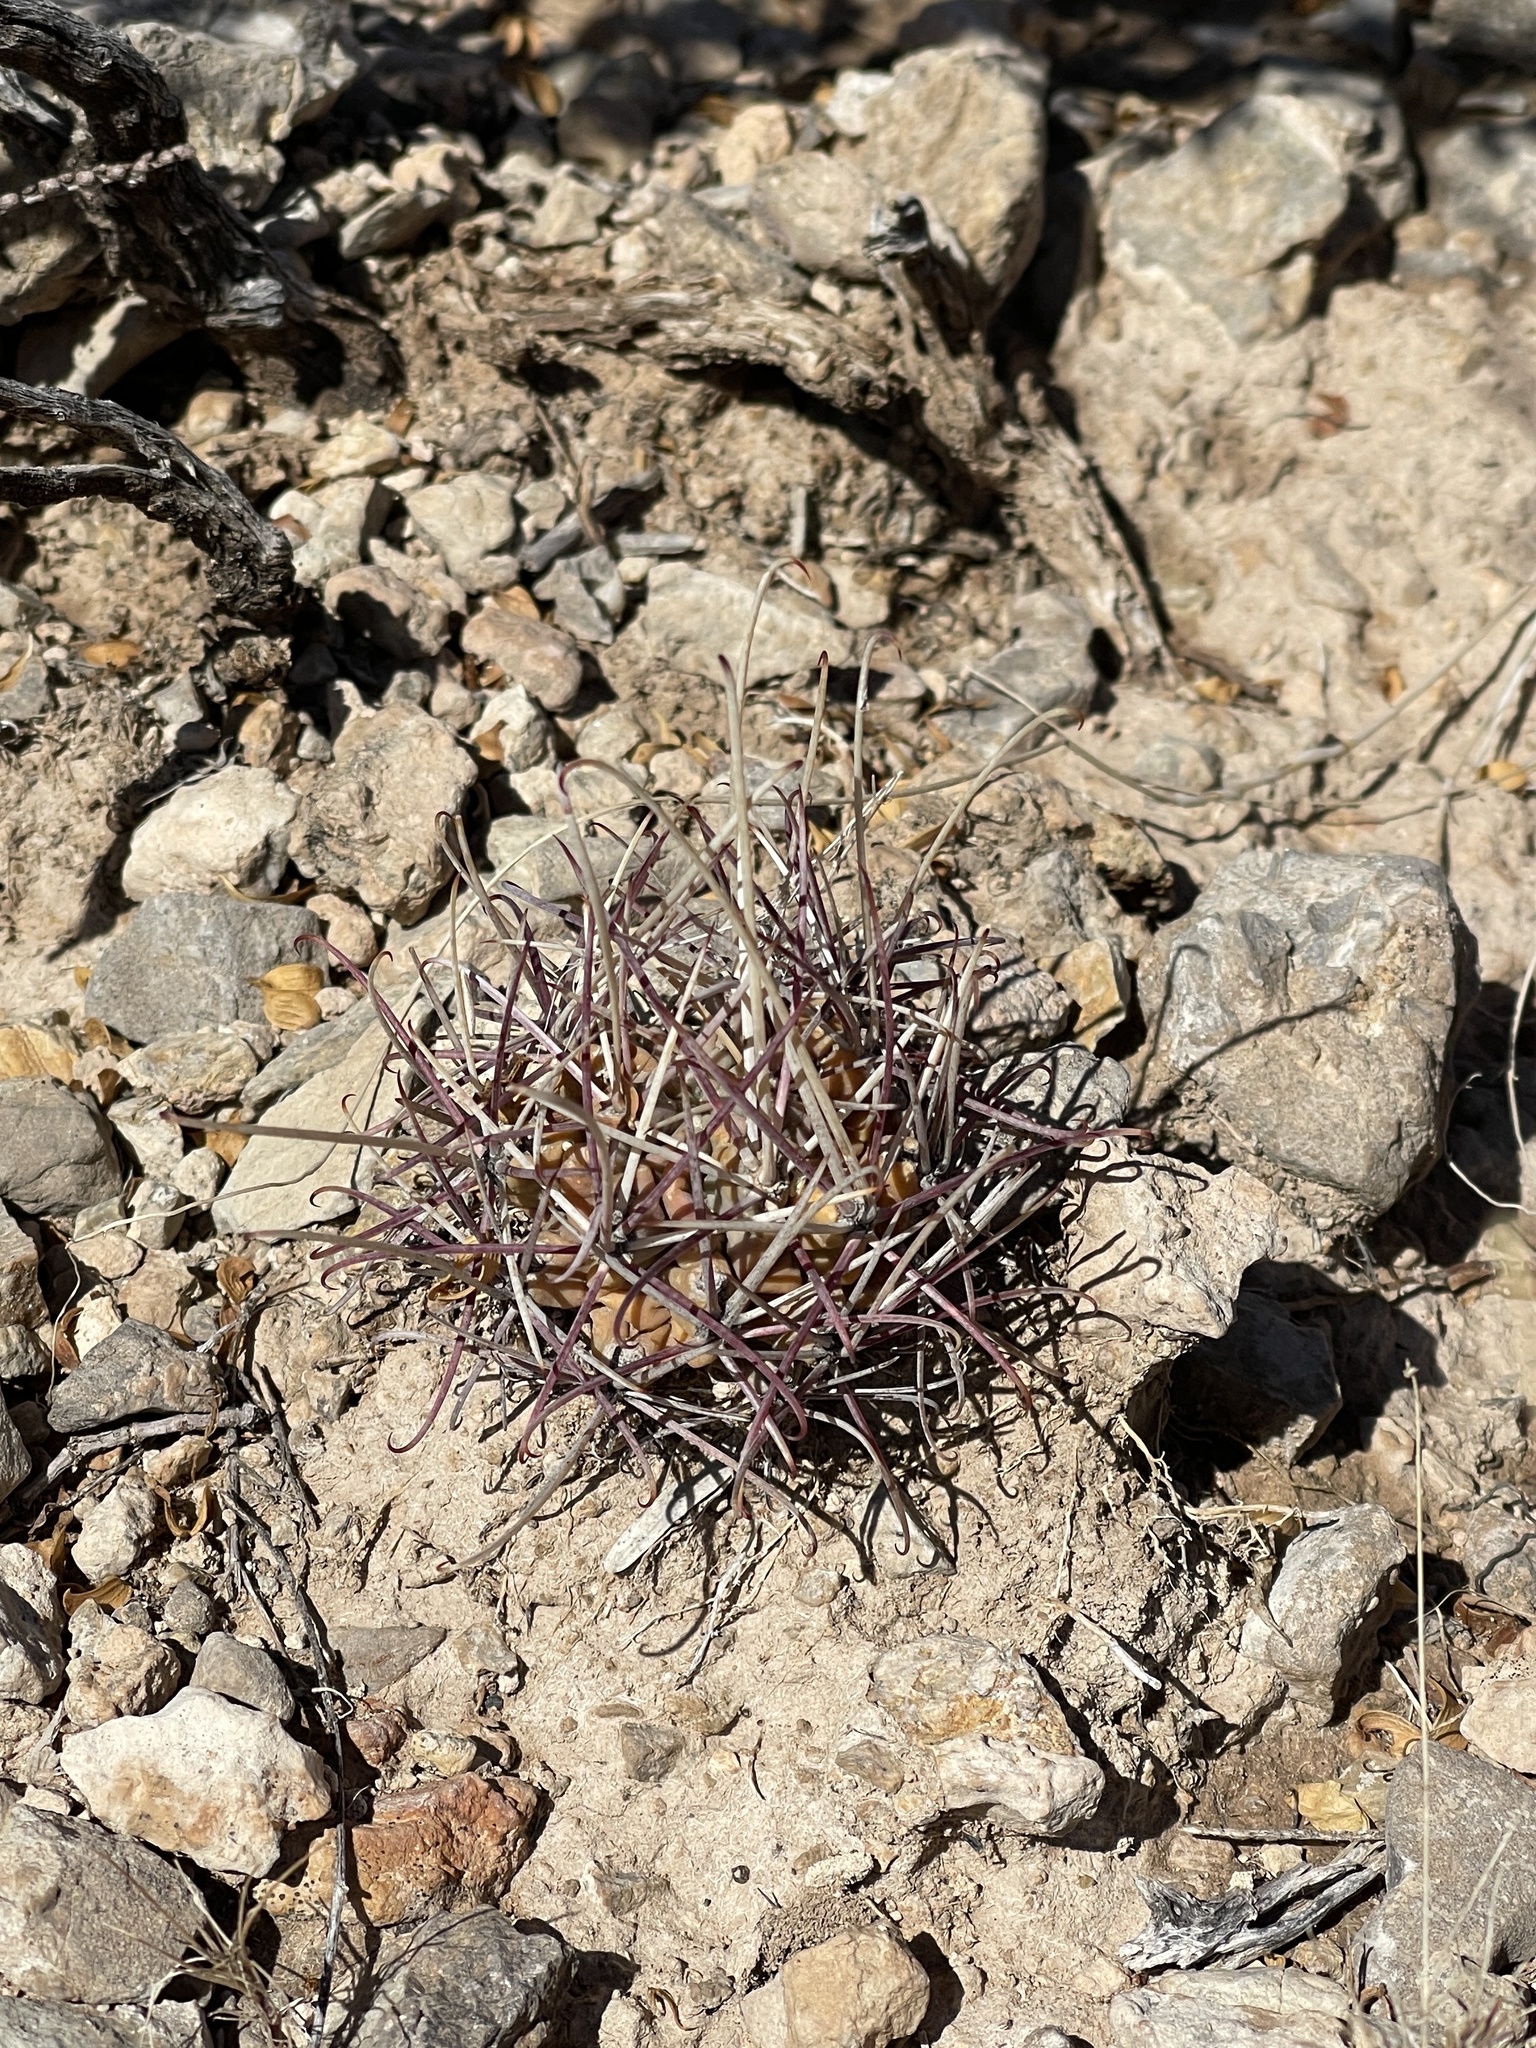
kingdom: Plantae
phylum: Tracheophyta
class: Magnoliopsida
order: Caryophyllales
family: Cactaceae
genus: Ferocactus
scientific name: Ferocactus uncinatus
